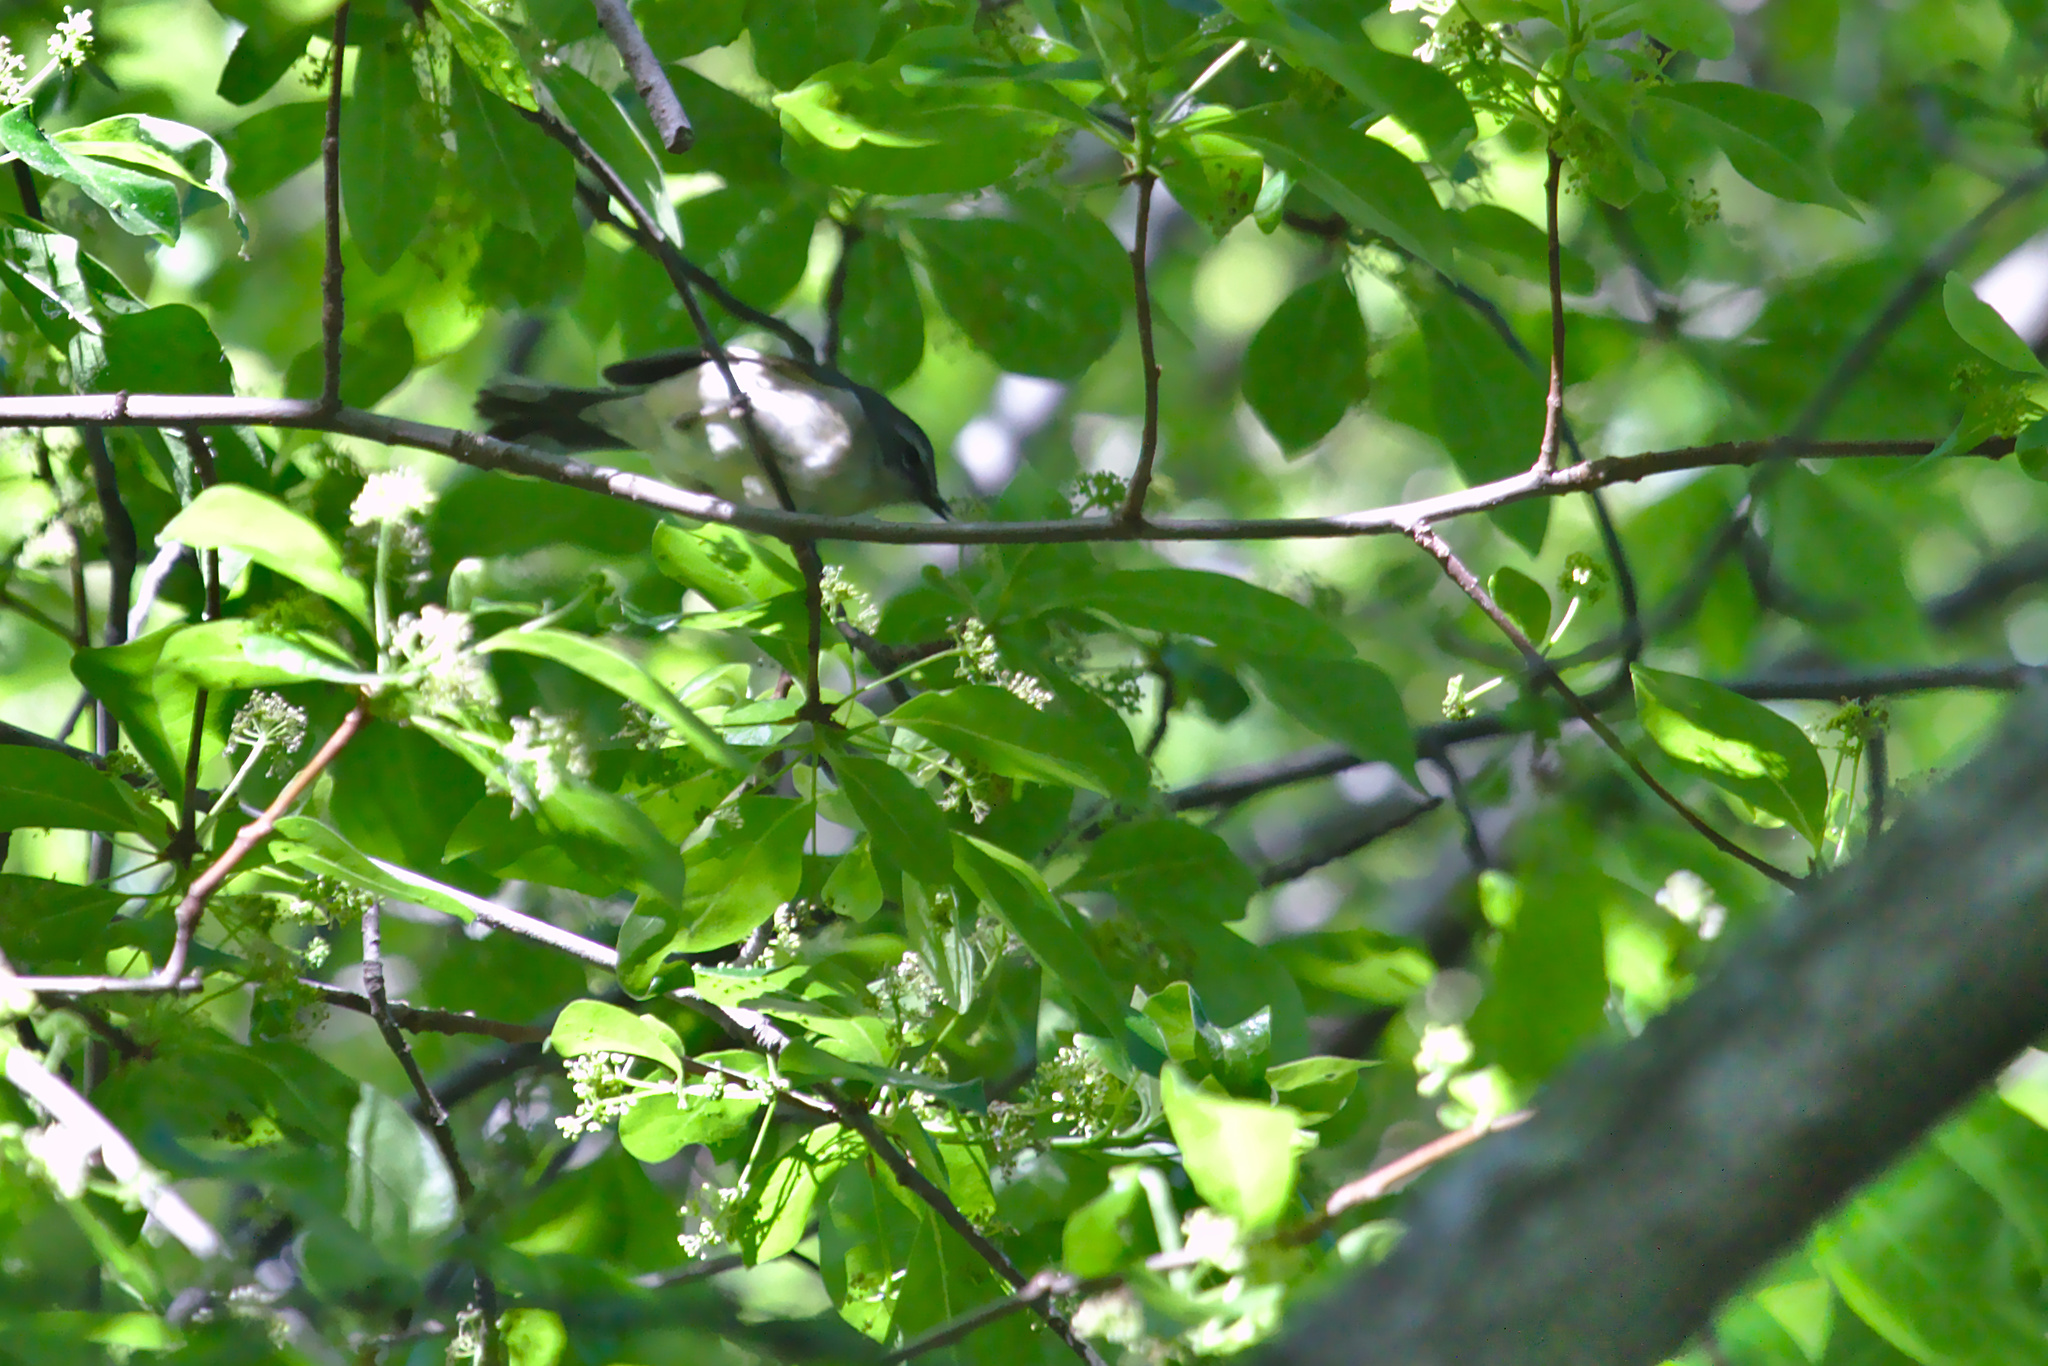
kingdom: Animalia
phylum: Chordata
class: Aves
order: Passeriformes
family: Parulidae
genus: Setophaga
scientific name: Setophaga caerulescens
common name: Black-throated blue warbler
